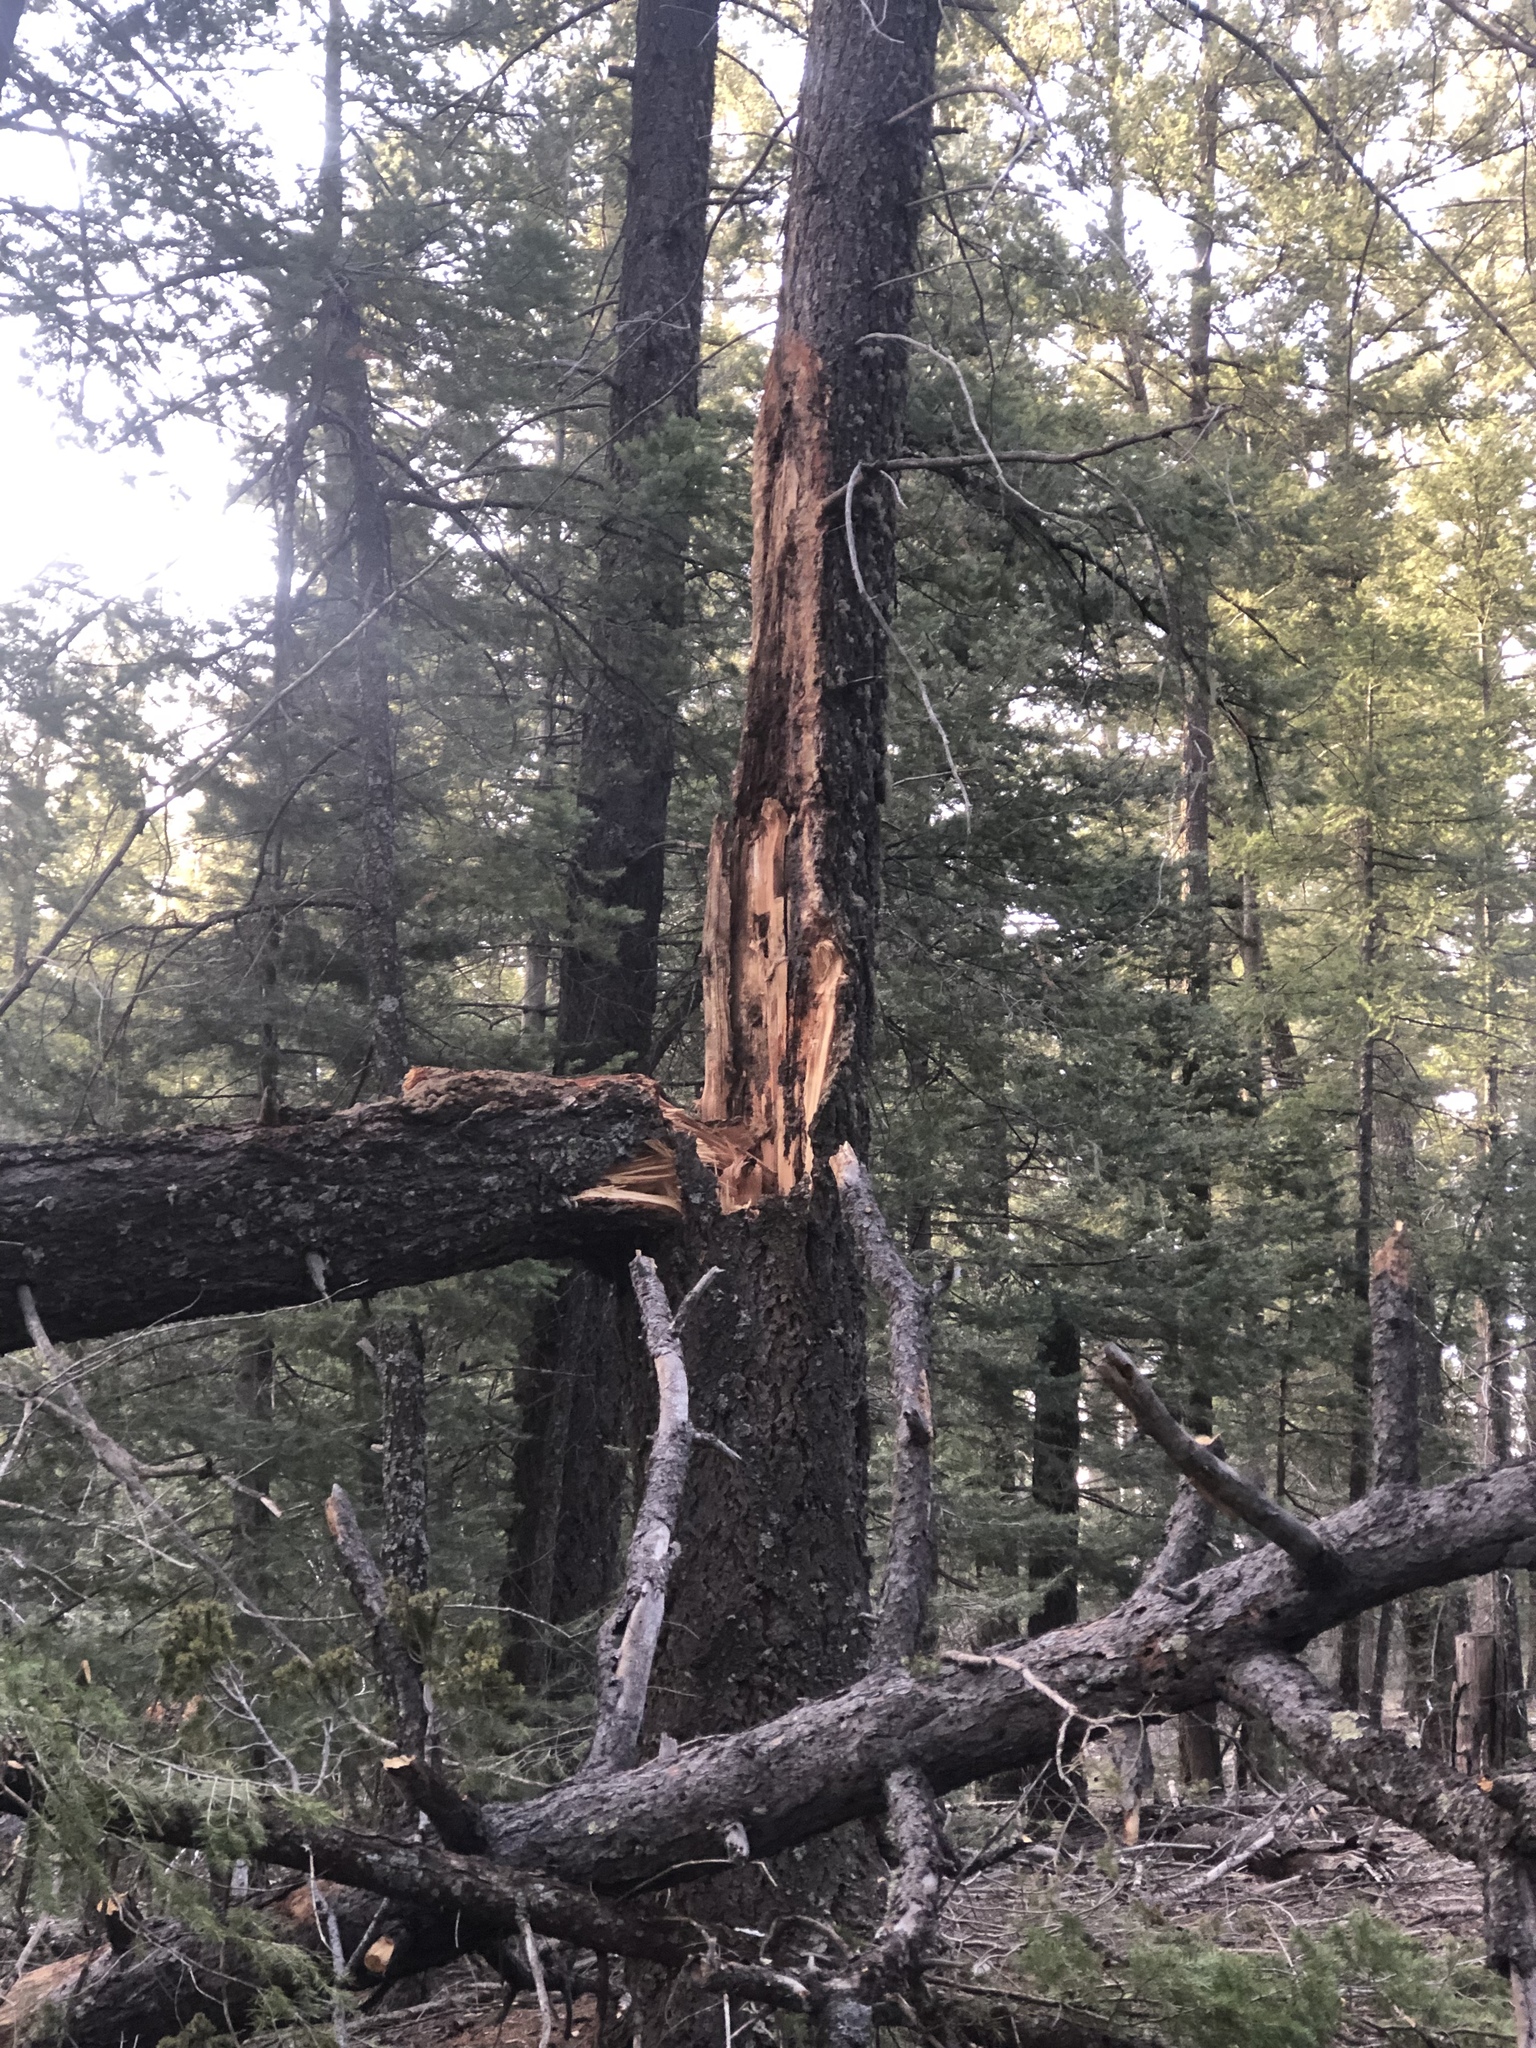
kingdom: Plantae
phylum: Tracheophyta
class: Pinopsida
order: Pinales
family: Pinaceae
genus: Pseudotsuga
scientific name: Pseudotsuga menziesii
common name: Douglas fir
